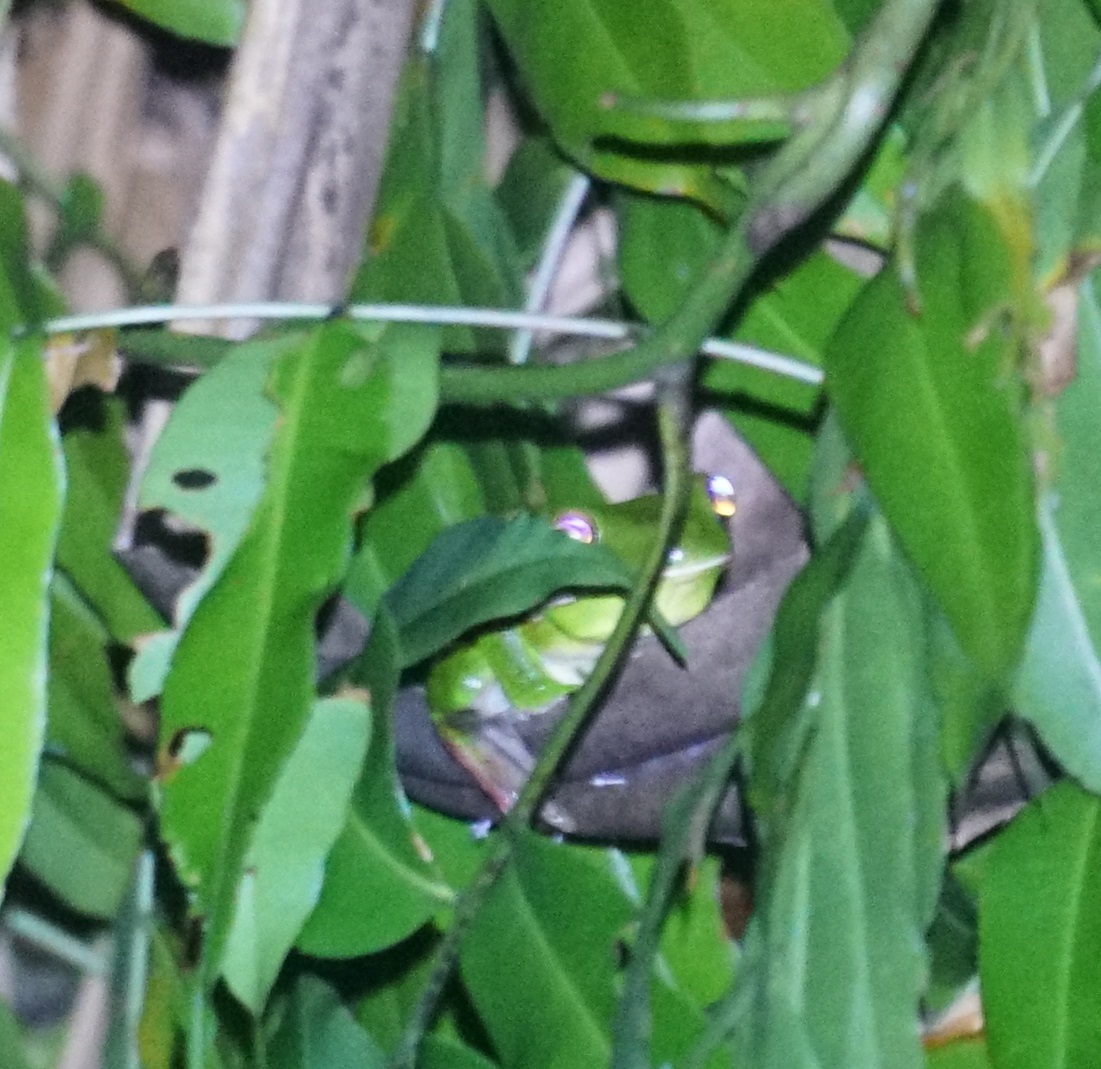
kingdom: Animalia
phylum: Chordata
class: Amphibia
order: Anura
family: Pelodryadidae
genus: Nyctimystes
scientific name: Nyctimystes infrafrenatus
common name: Australian giant treefrog
